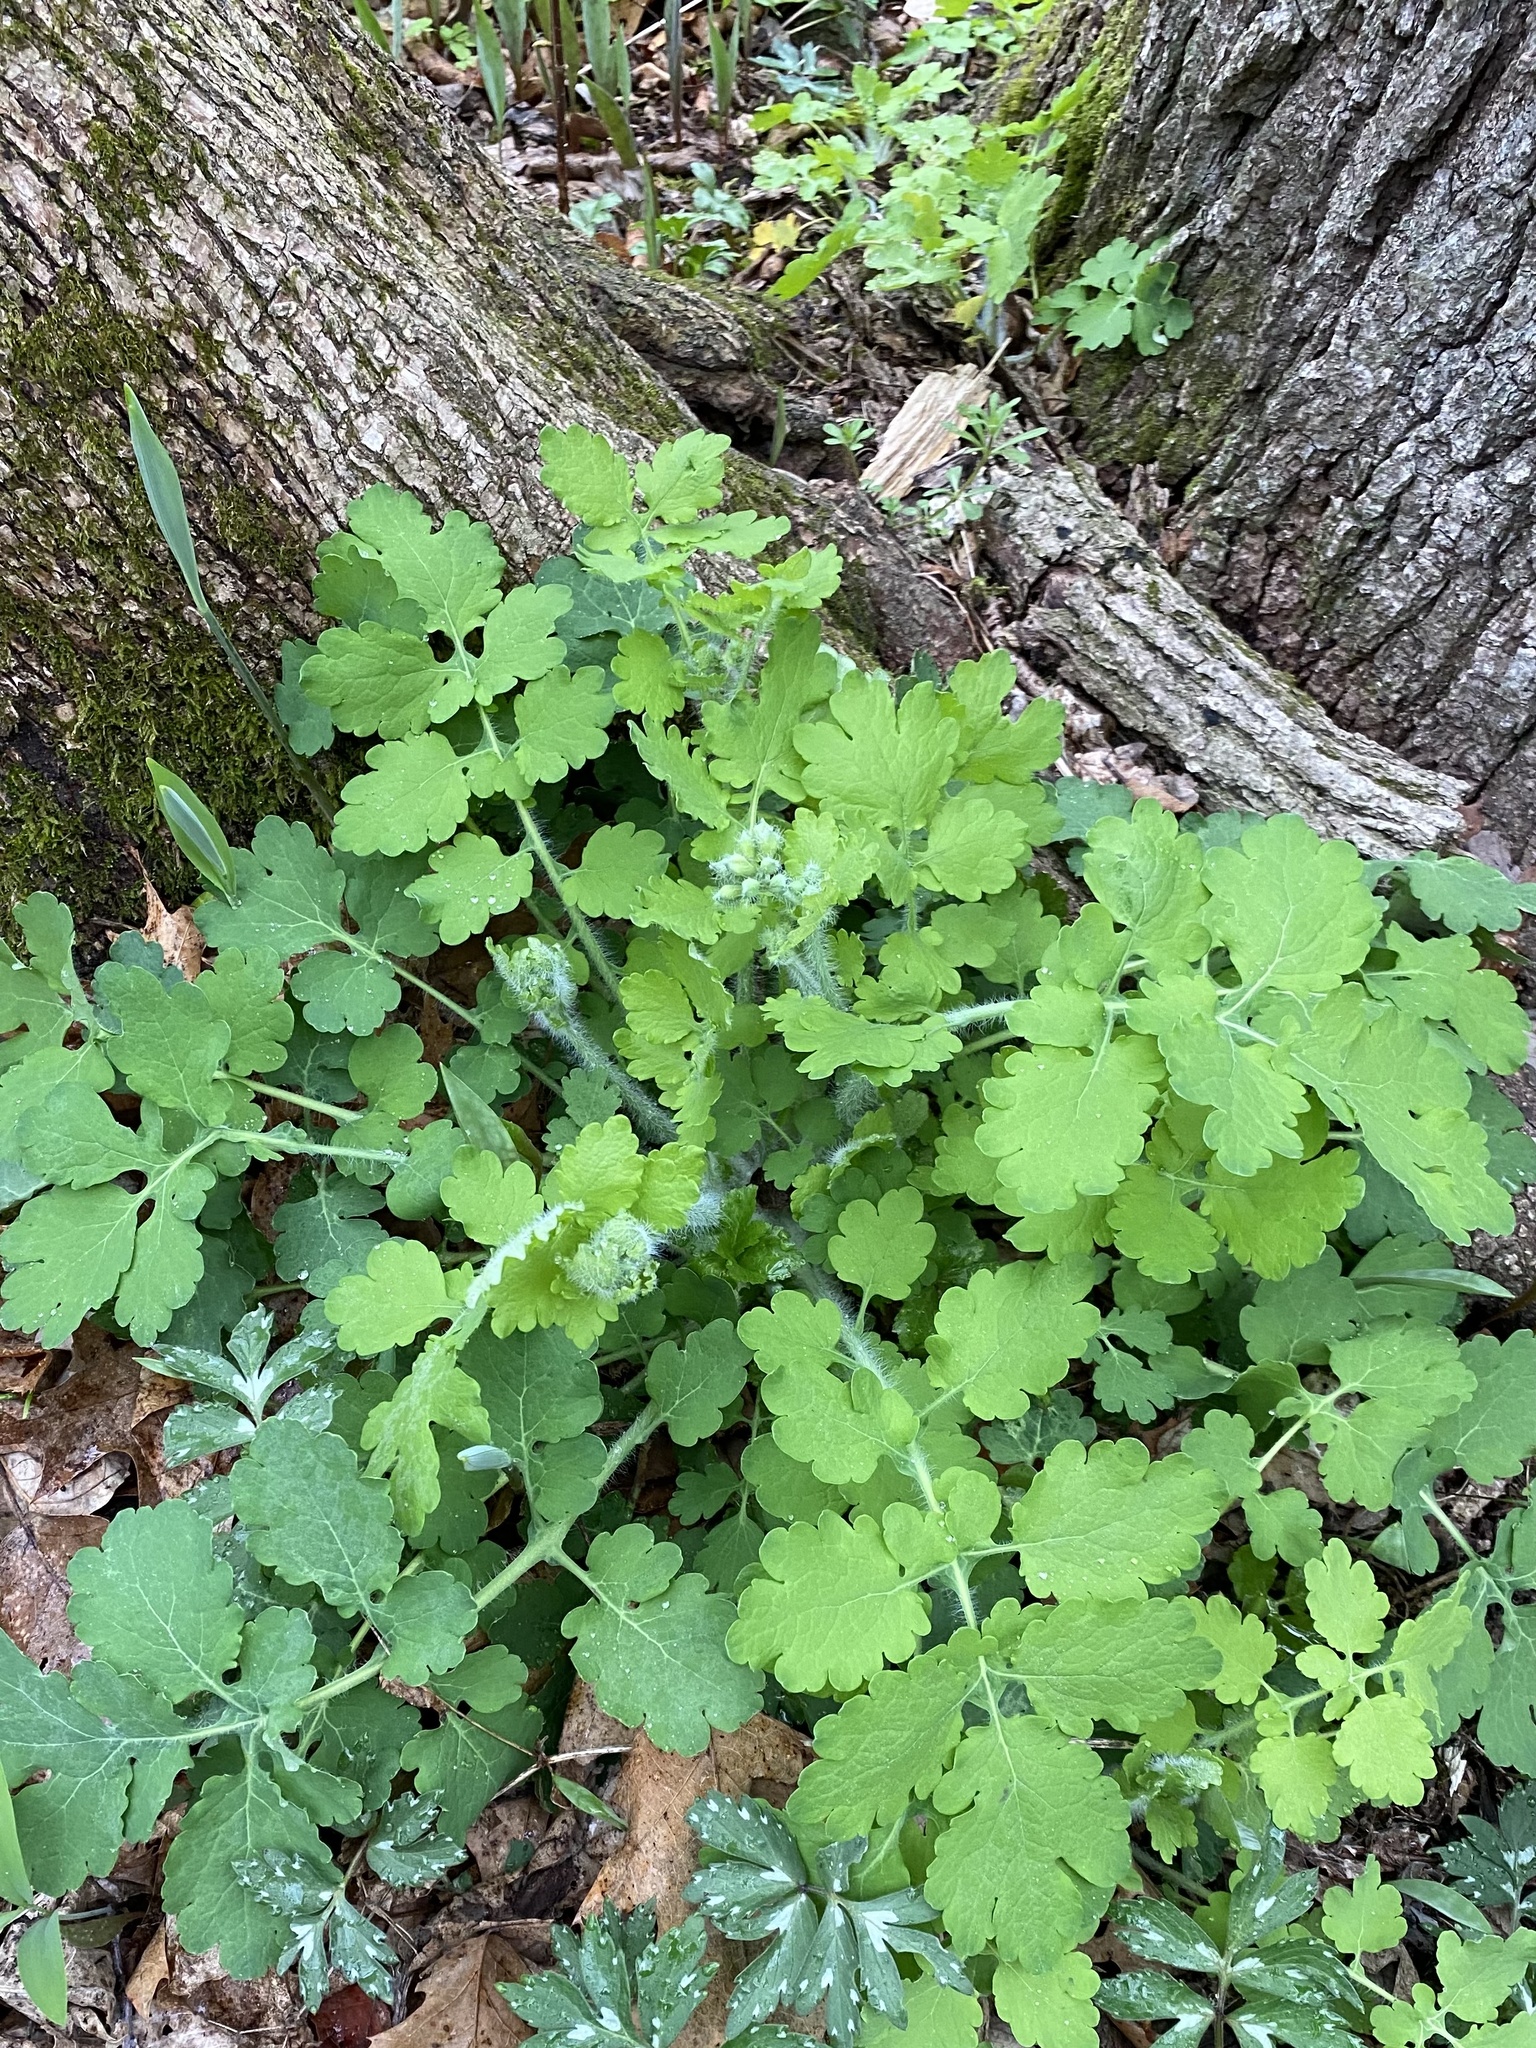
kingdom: Plantae
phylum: Tracheophyta
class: Magnoliopsida
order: Ranunculales
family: Papaveraceae
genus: Chelidonium
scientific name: Chelidonium majus
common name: Greater celandine
